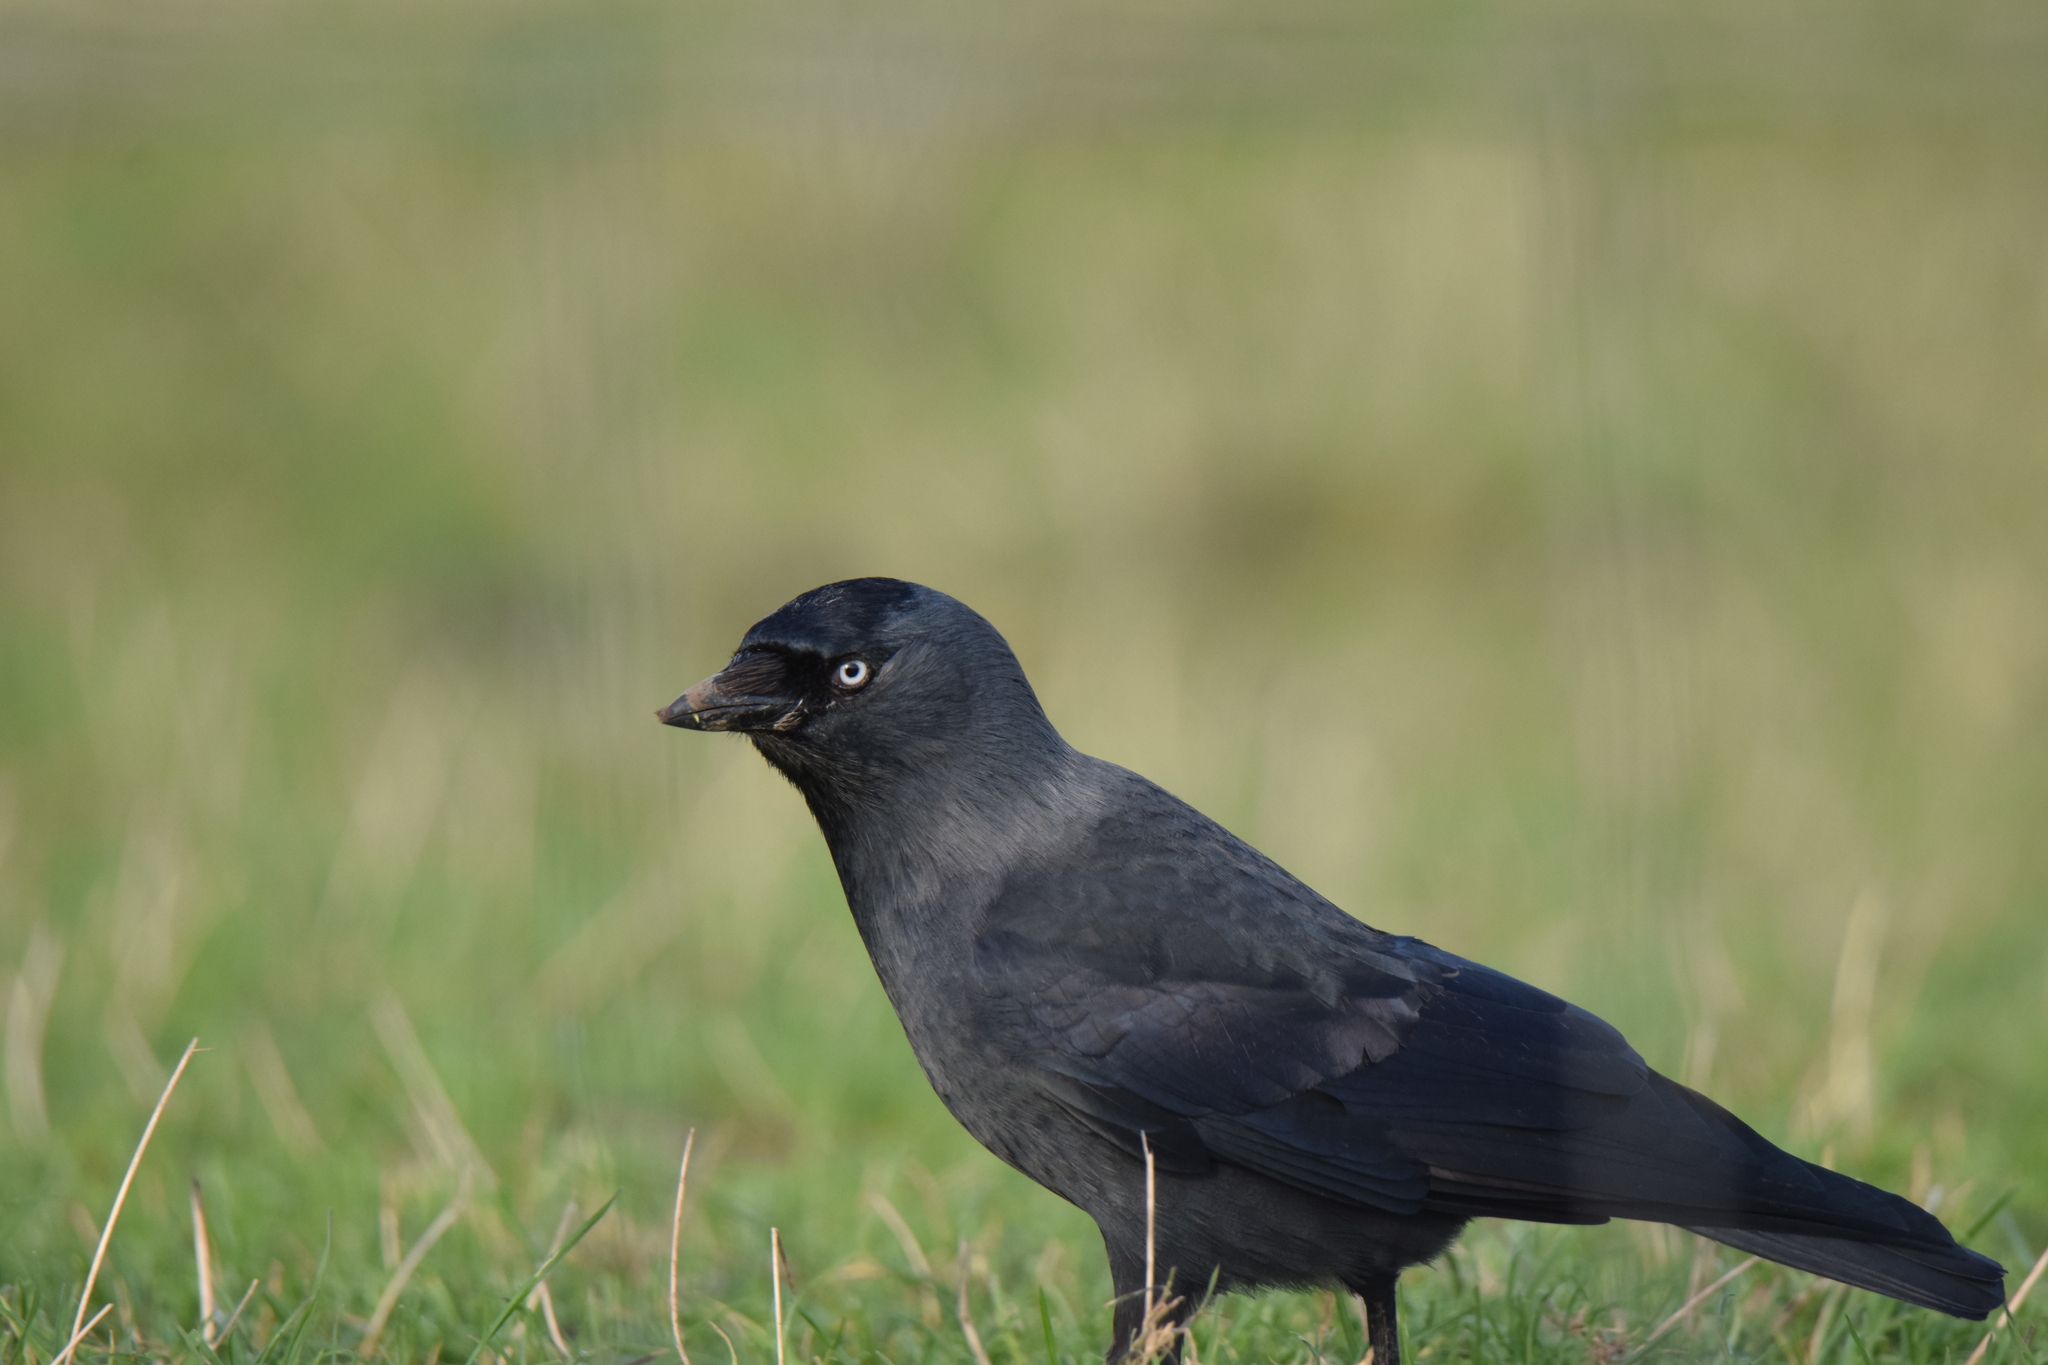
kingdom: Animalia
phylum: Chordata
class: Aves
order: Passeriformes
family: Corvidae
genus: Coloeus
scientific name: Coloeus monedula
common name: Western jackdaw
